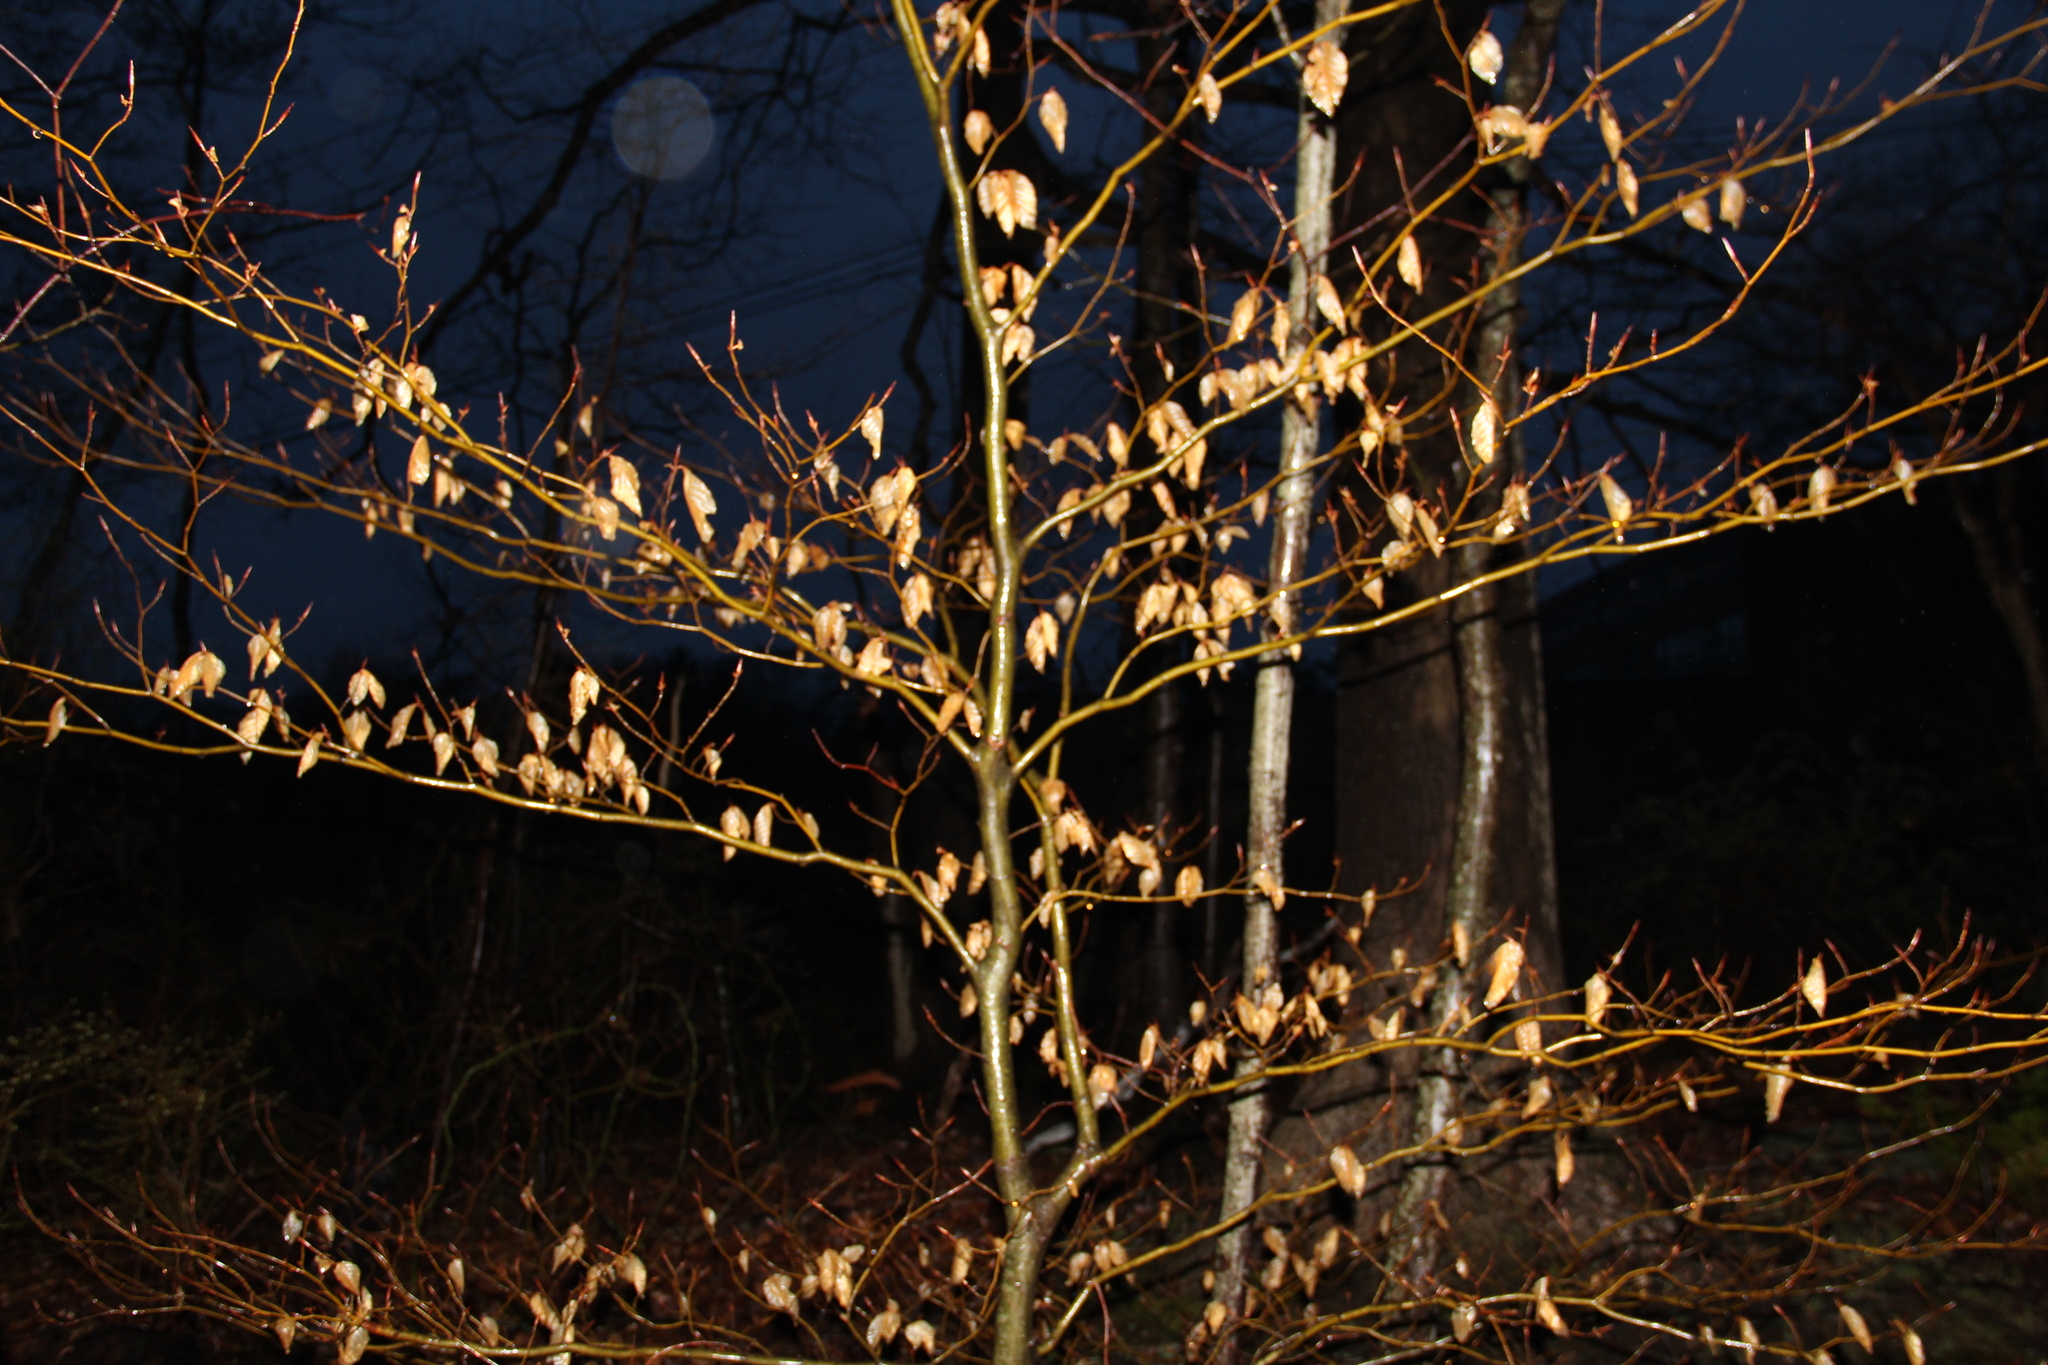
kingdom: Plantae
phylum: Tracheophyta
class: Magnoliopsida
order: Fagales
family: Fagaceae
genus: Fagus
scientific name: Fagus grandifolia
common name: American beech
